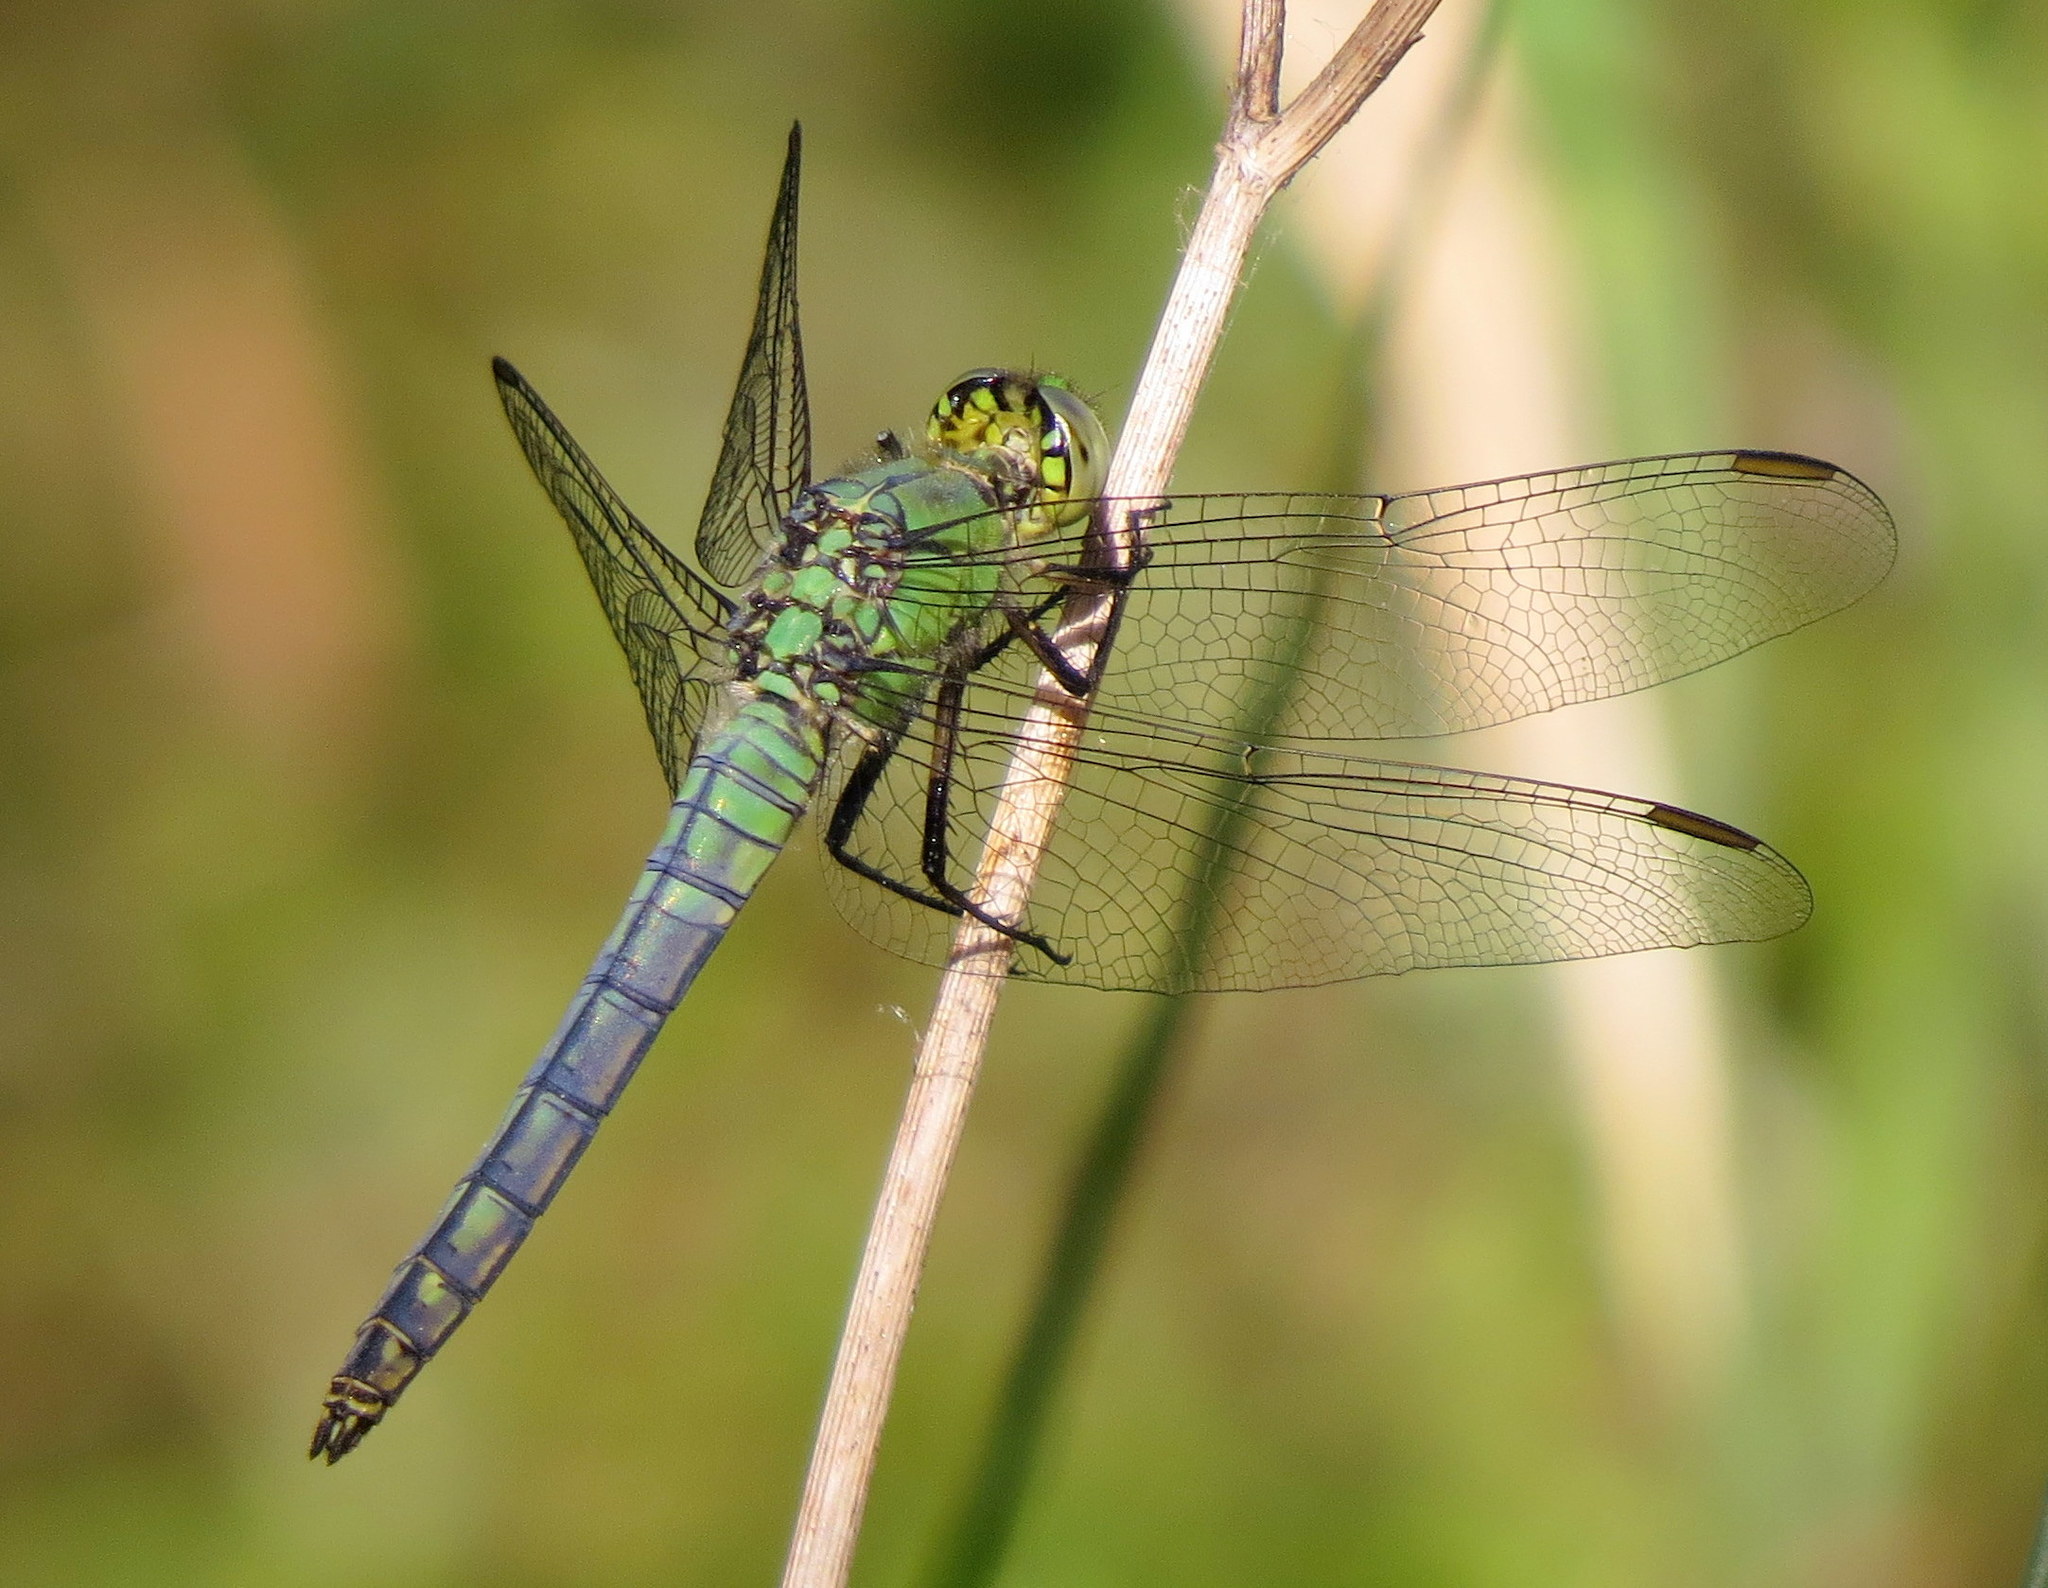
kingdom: Animalia
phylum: Arthropoda
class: Insecta
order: Odonata
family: Libellulidae
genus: Erythemis
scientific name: Erythemis collocata
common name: Western pondhawk
